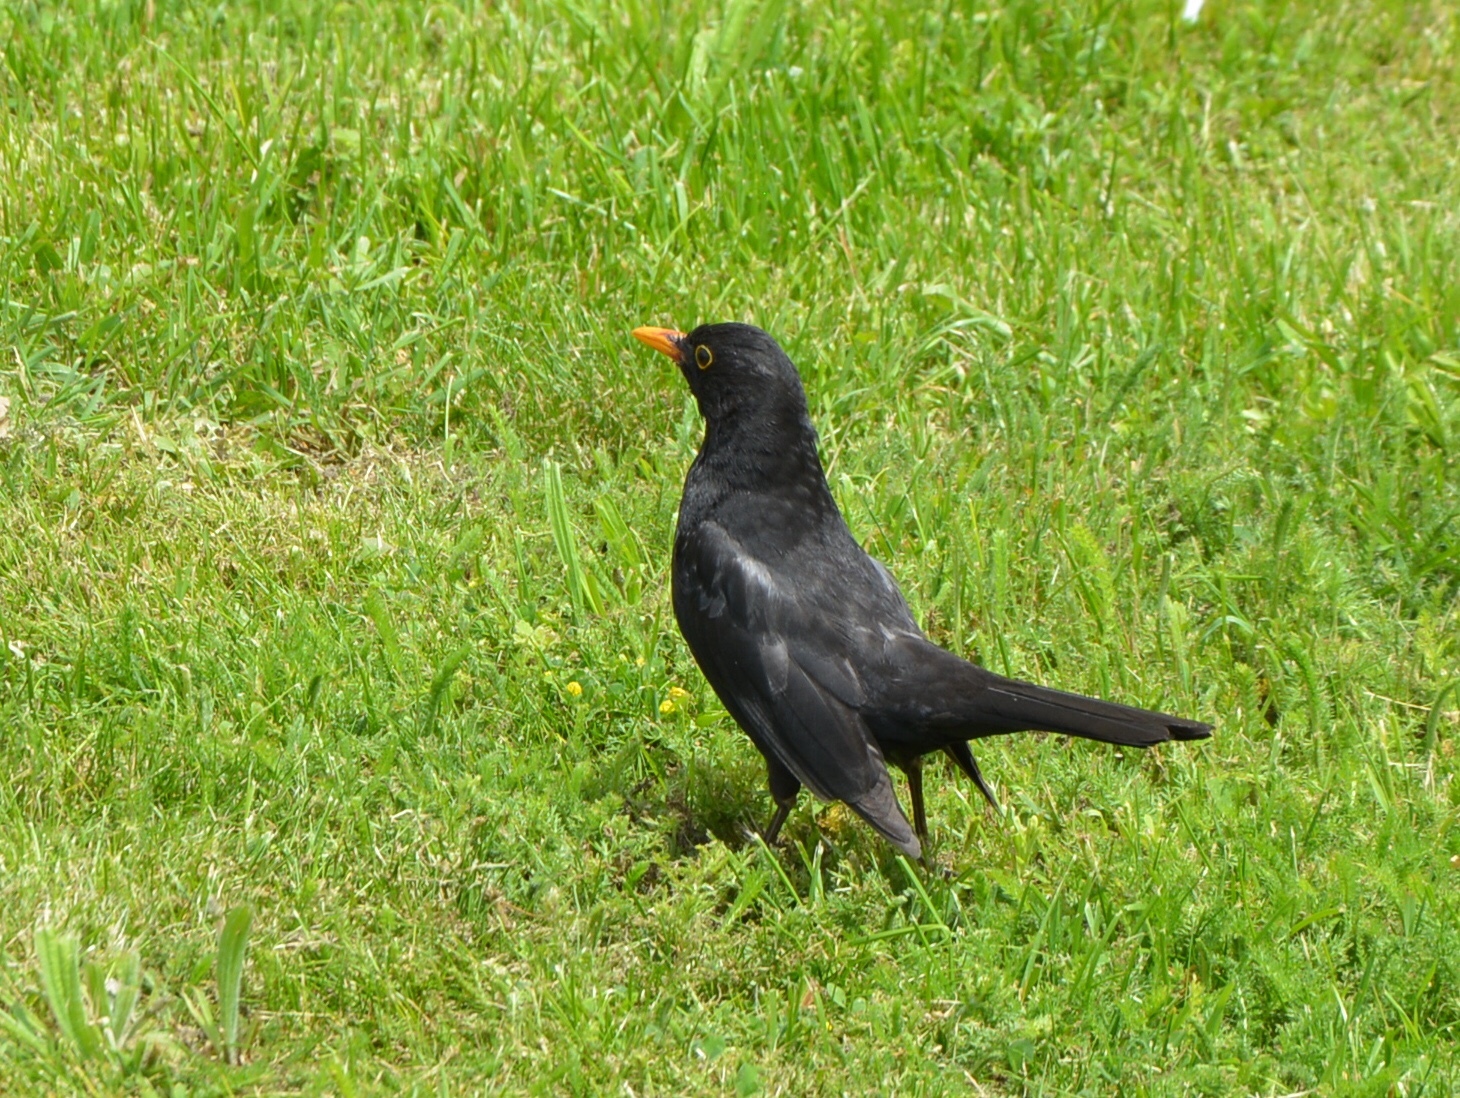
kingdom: Animalia
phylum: Chordata
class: Aves
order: Passeriformes
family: Turdidae
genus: Turdus
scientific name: Turdus merula
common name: Common blackbird
